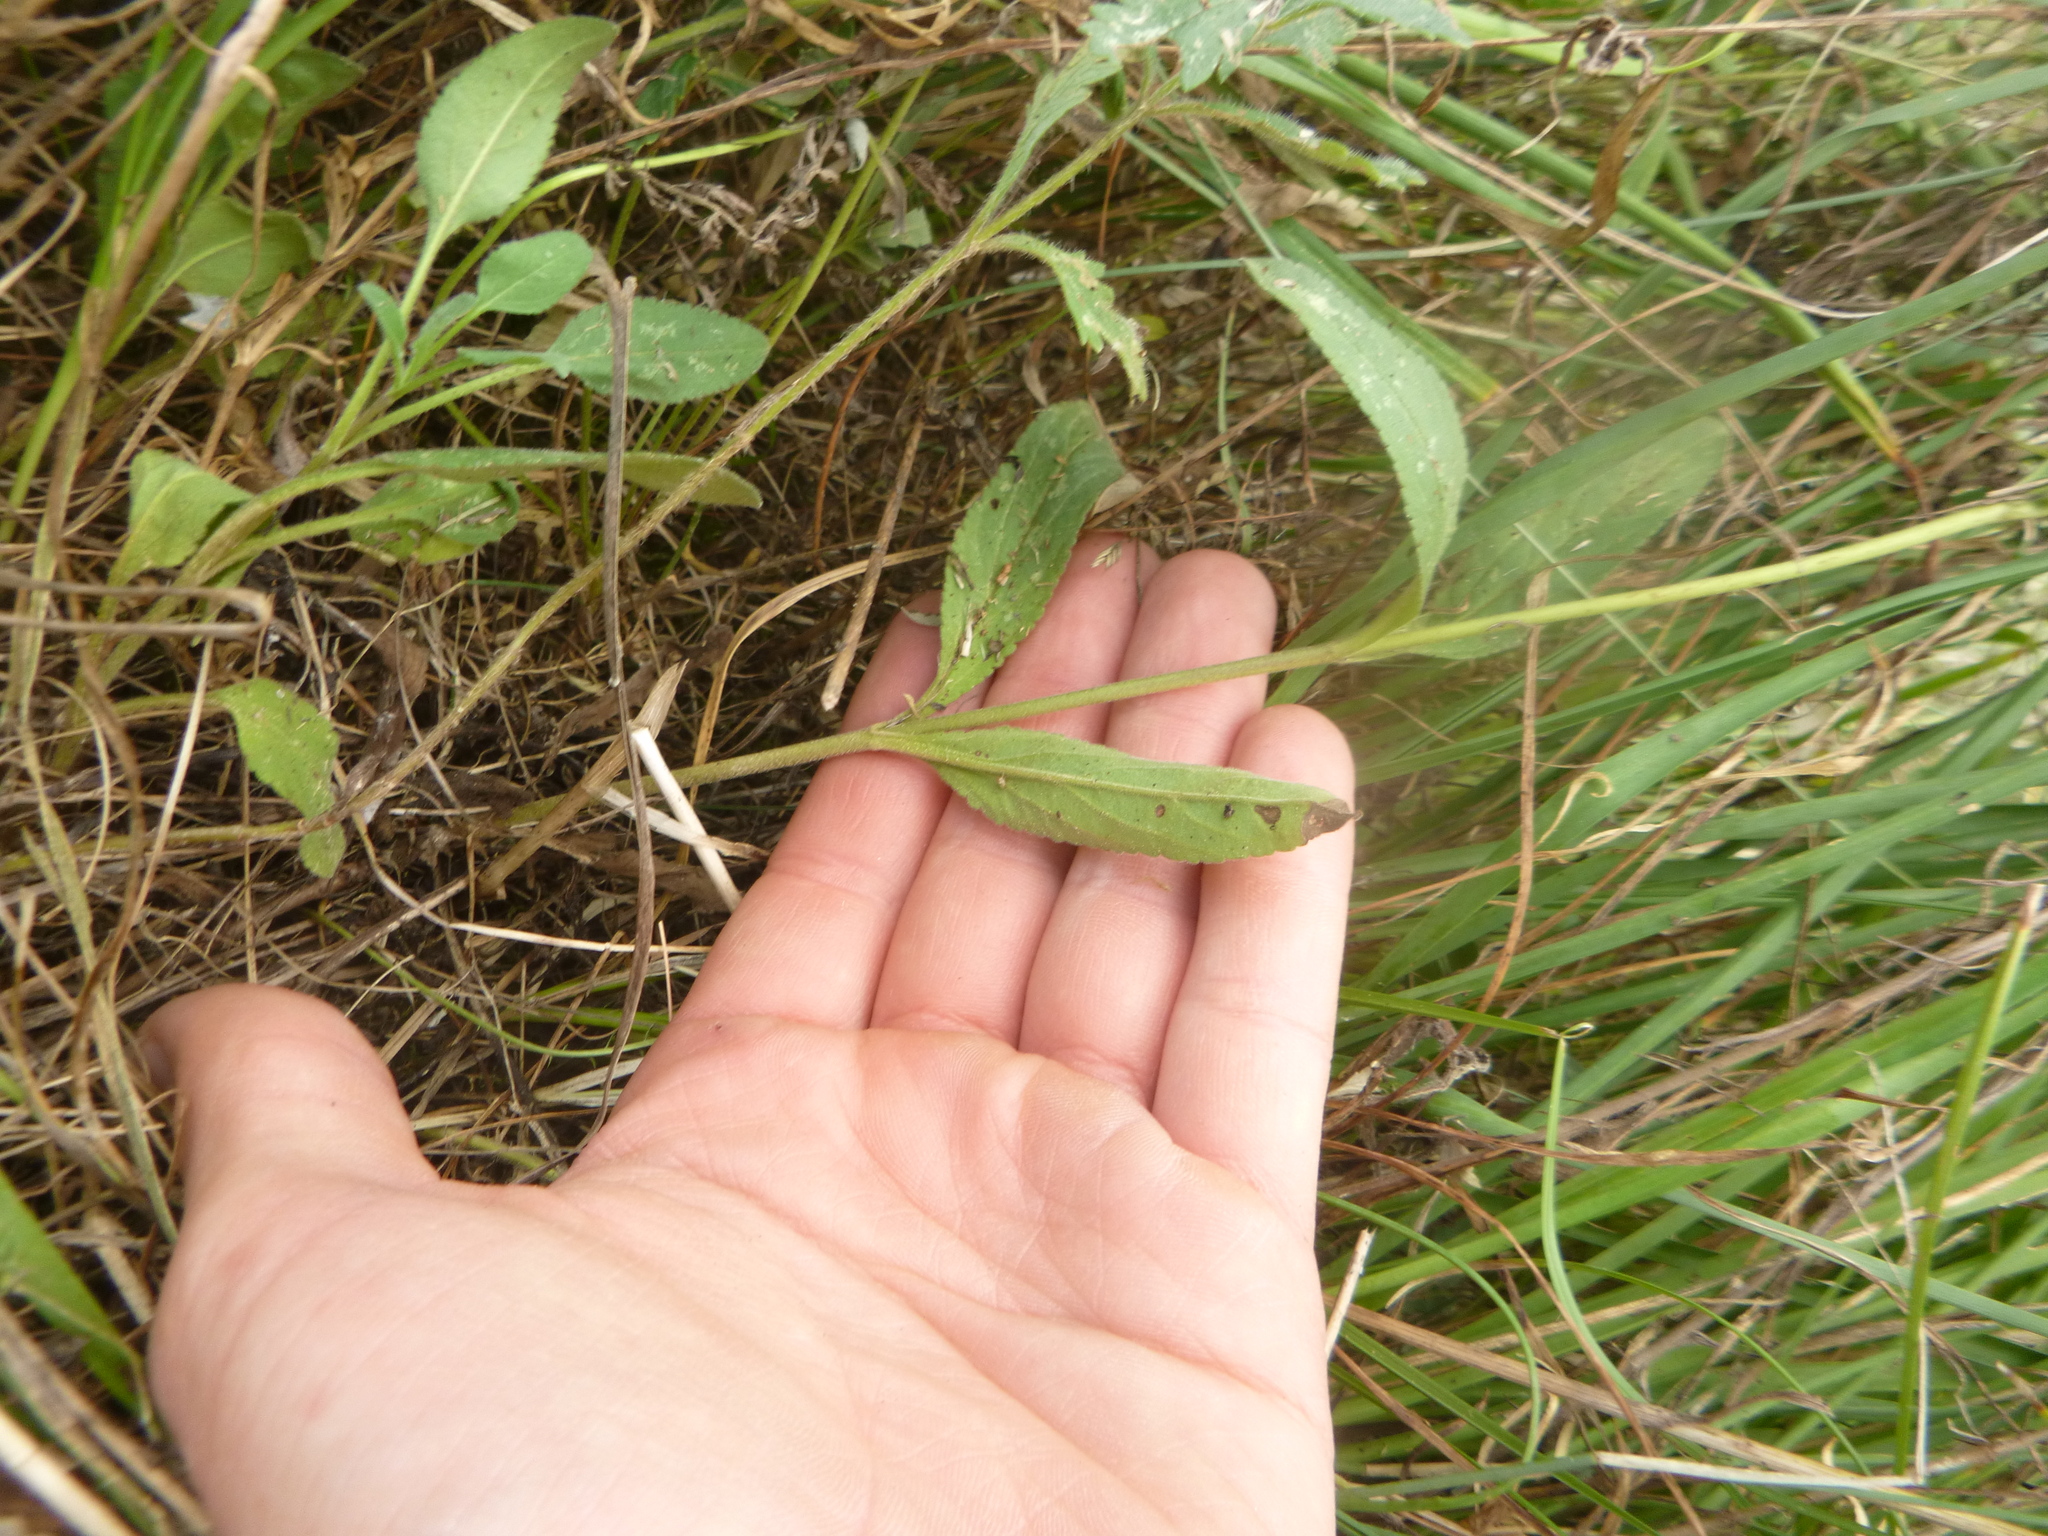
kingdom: Plantae
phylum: Tracheophyta
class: Magnoliopsida
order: Lamiales
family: Plantaginaceae
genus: Veronica
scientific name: Veronica spicata
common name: Spiked speedwell
